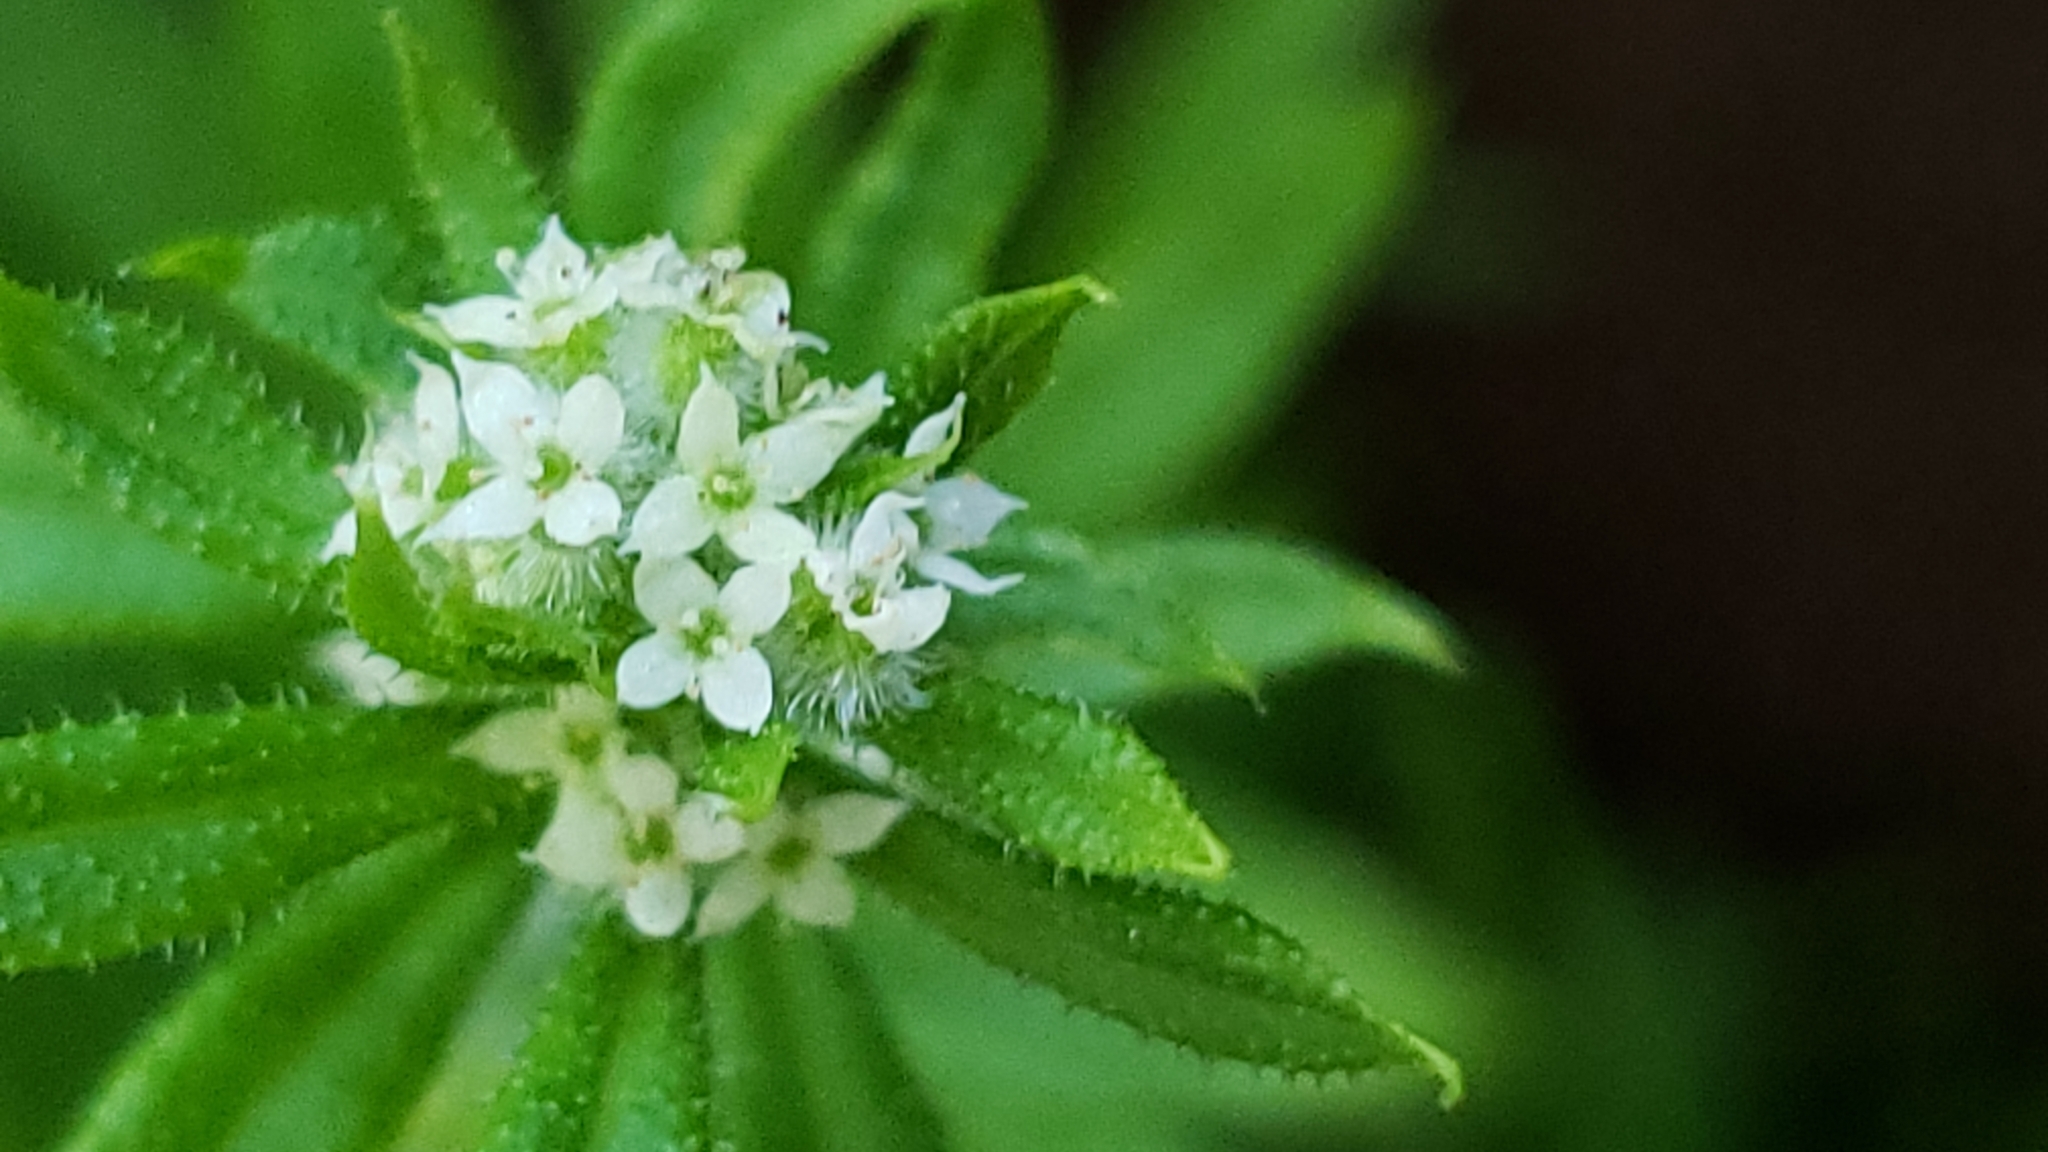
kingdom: Plantae
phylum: Tracheophyta
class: Magnoliopsida
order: Gentianales
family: Rubiaceae
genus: Galium
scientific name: Galium aparine
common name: Cleavers
